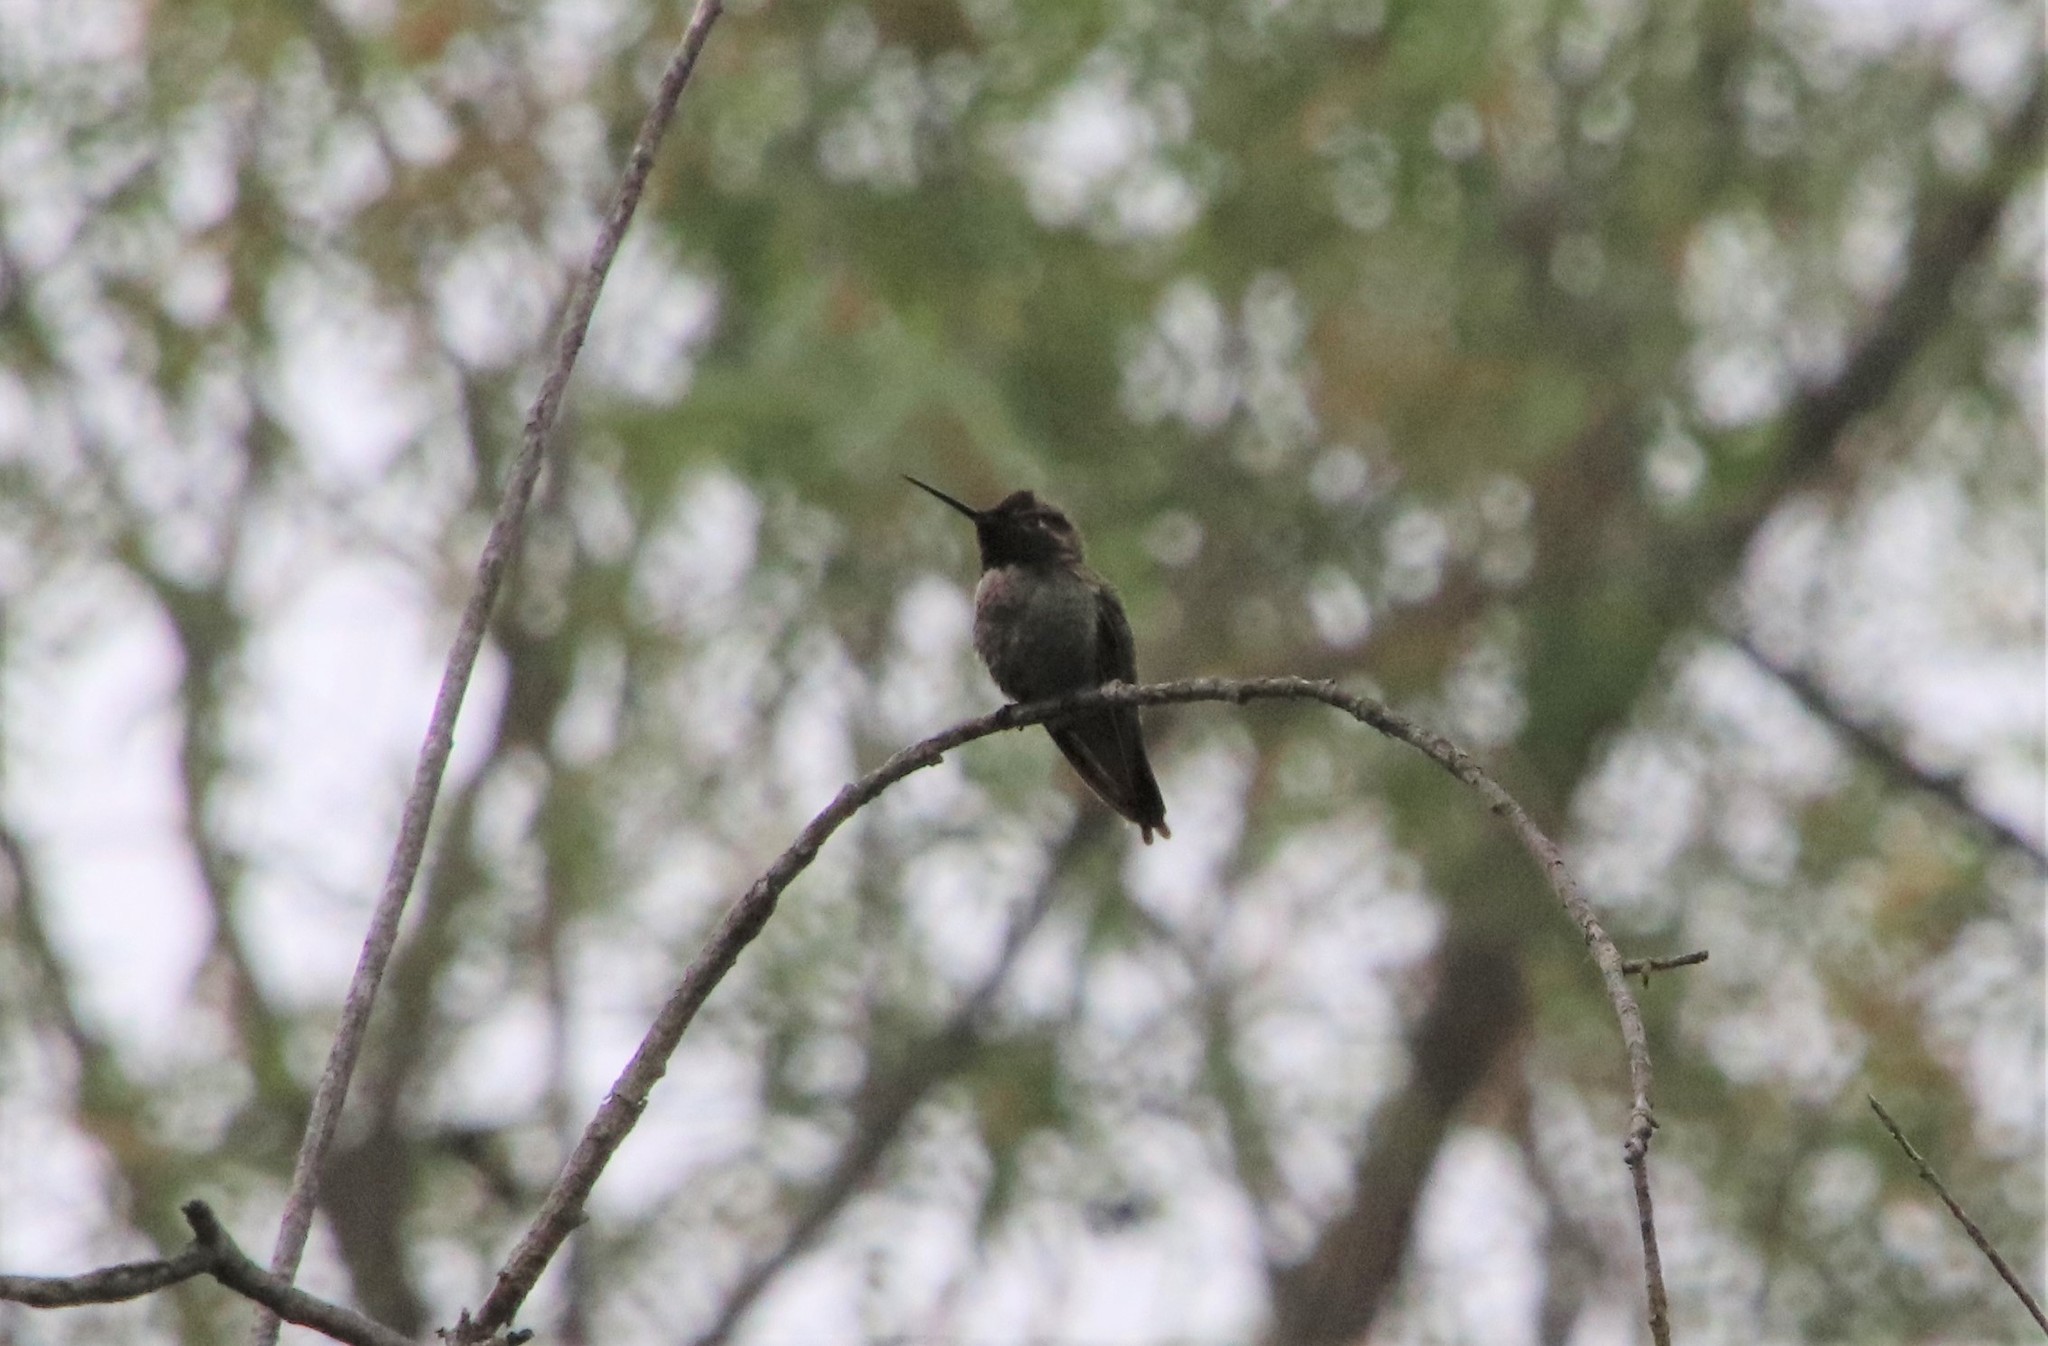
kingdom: Animalia
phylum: Chordata
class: Aves
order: Apodiformes
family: Trochilidae
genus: Calypte
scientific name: Calypte anna
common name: Anna's hummingbird
